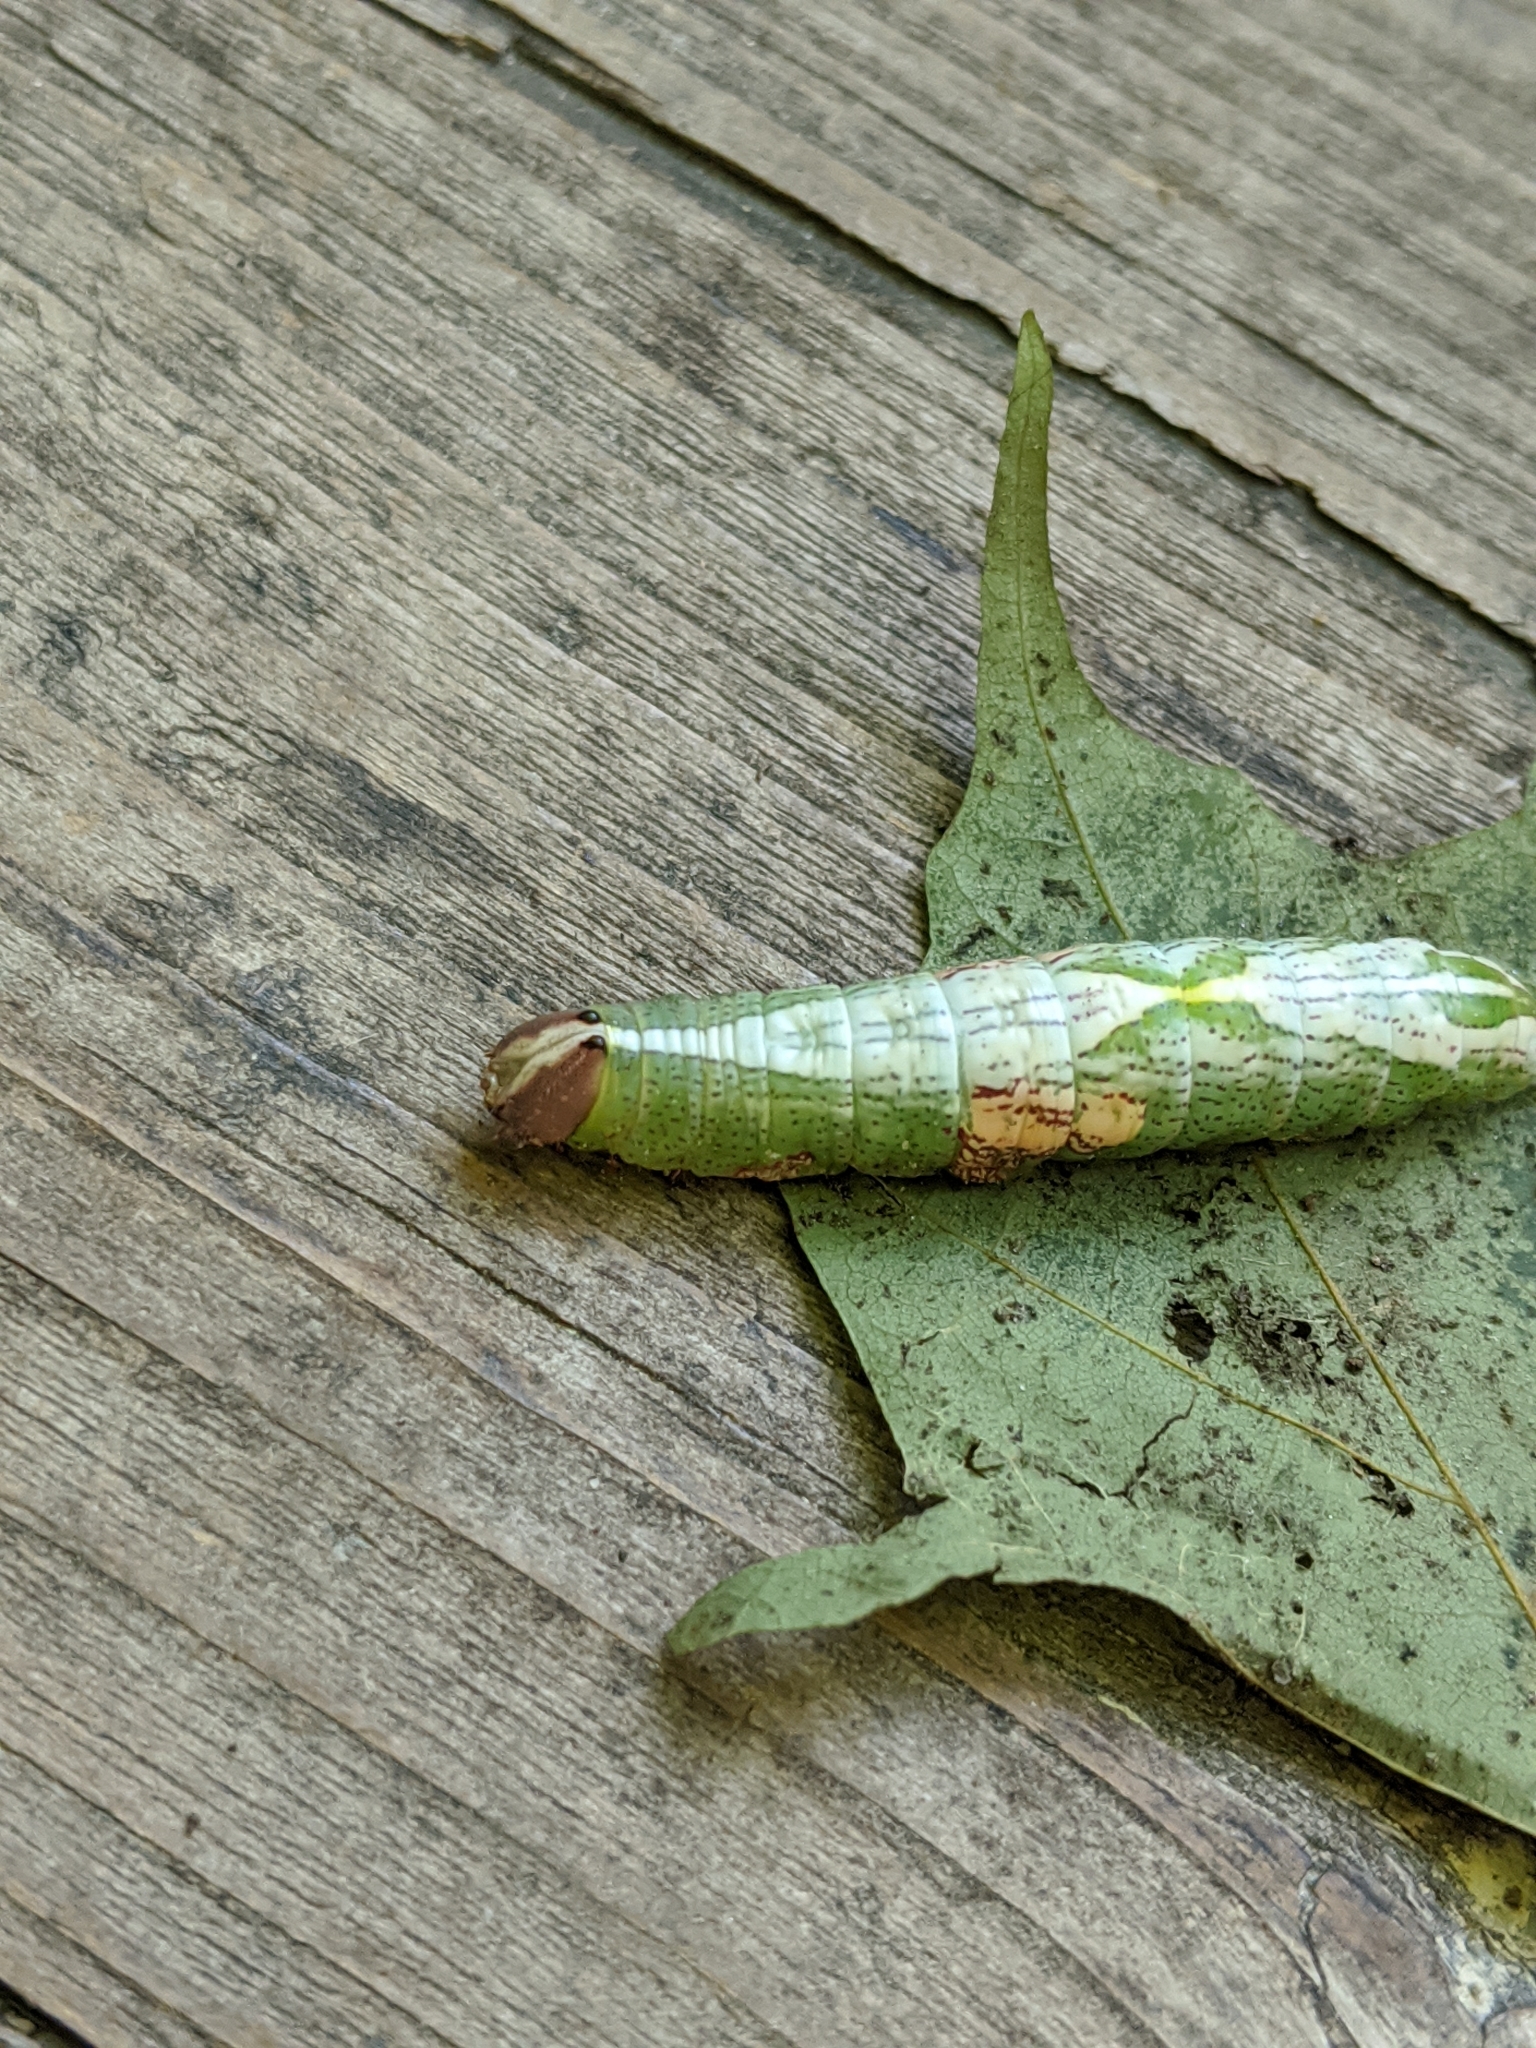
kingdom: Animalia
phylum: Arthropoda
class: Insecta
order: Lepidoptera
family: Notodontidae
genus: Disphragis
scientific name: Disphragis Cecrita biundata
